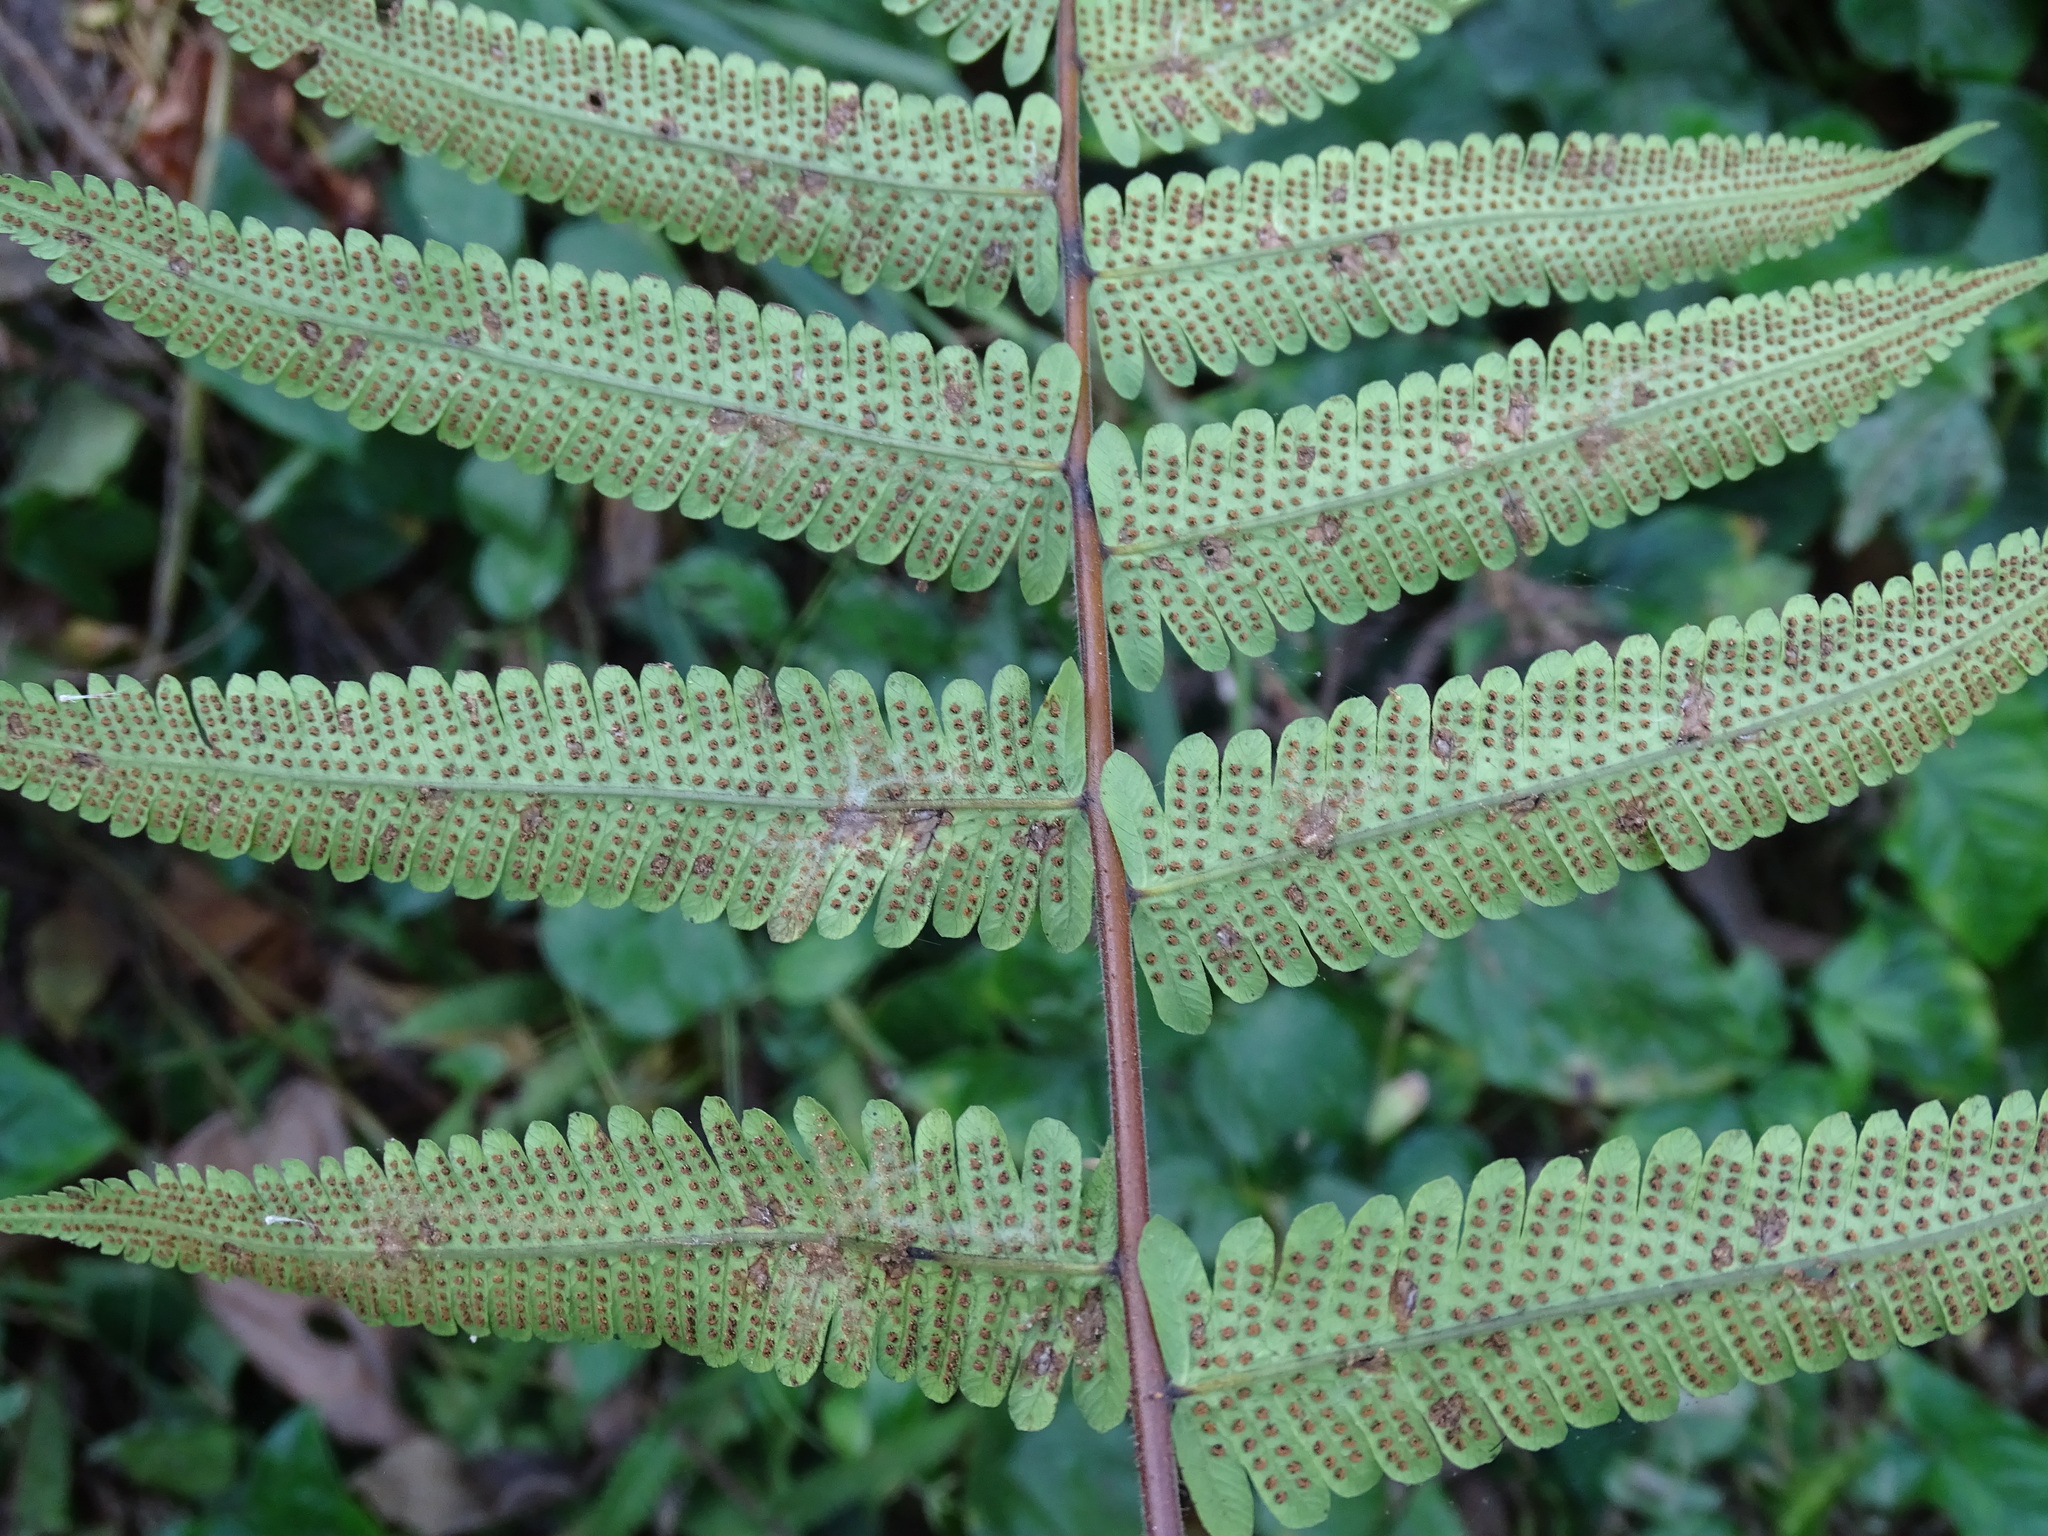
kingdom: Plantae
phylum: Tracheophyta
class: Polypodiopsida
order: Polypodiales
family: Thelypteridaceae
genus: Christella
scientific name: Christella dentata
